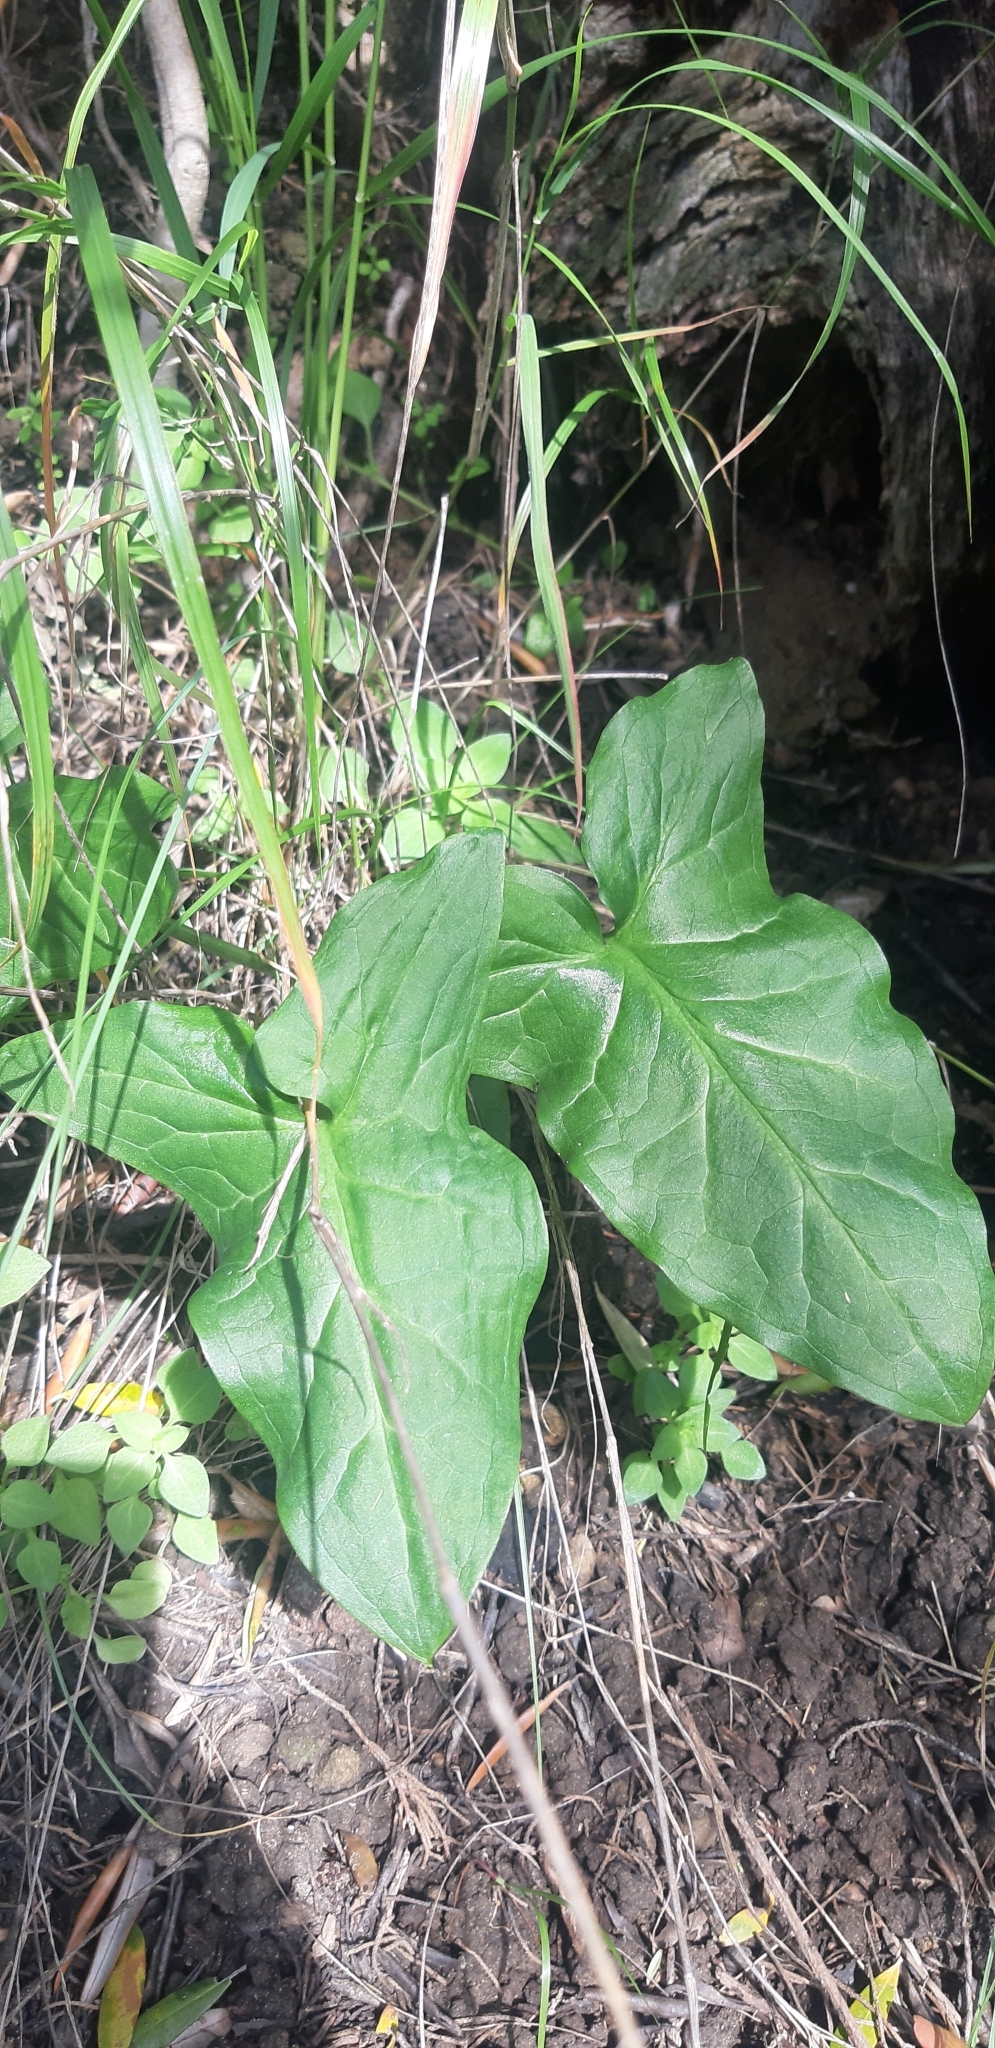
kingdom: Plantae
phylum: Tracheophyta
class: Liliopsida
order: Alismatales
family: Araceae
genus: Arum
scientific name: Arum italicum
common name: Italian lords-and-ladies
